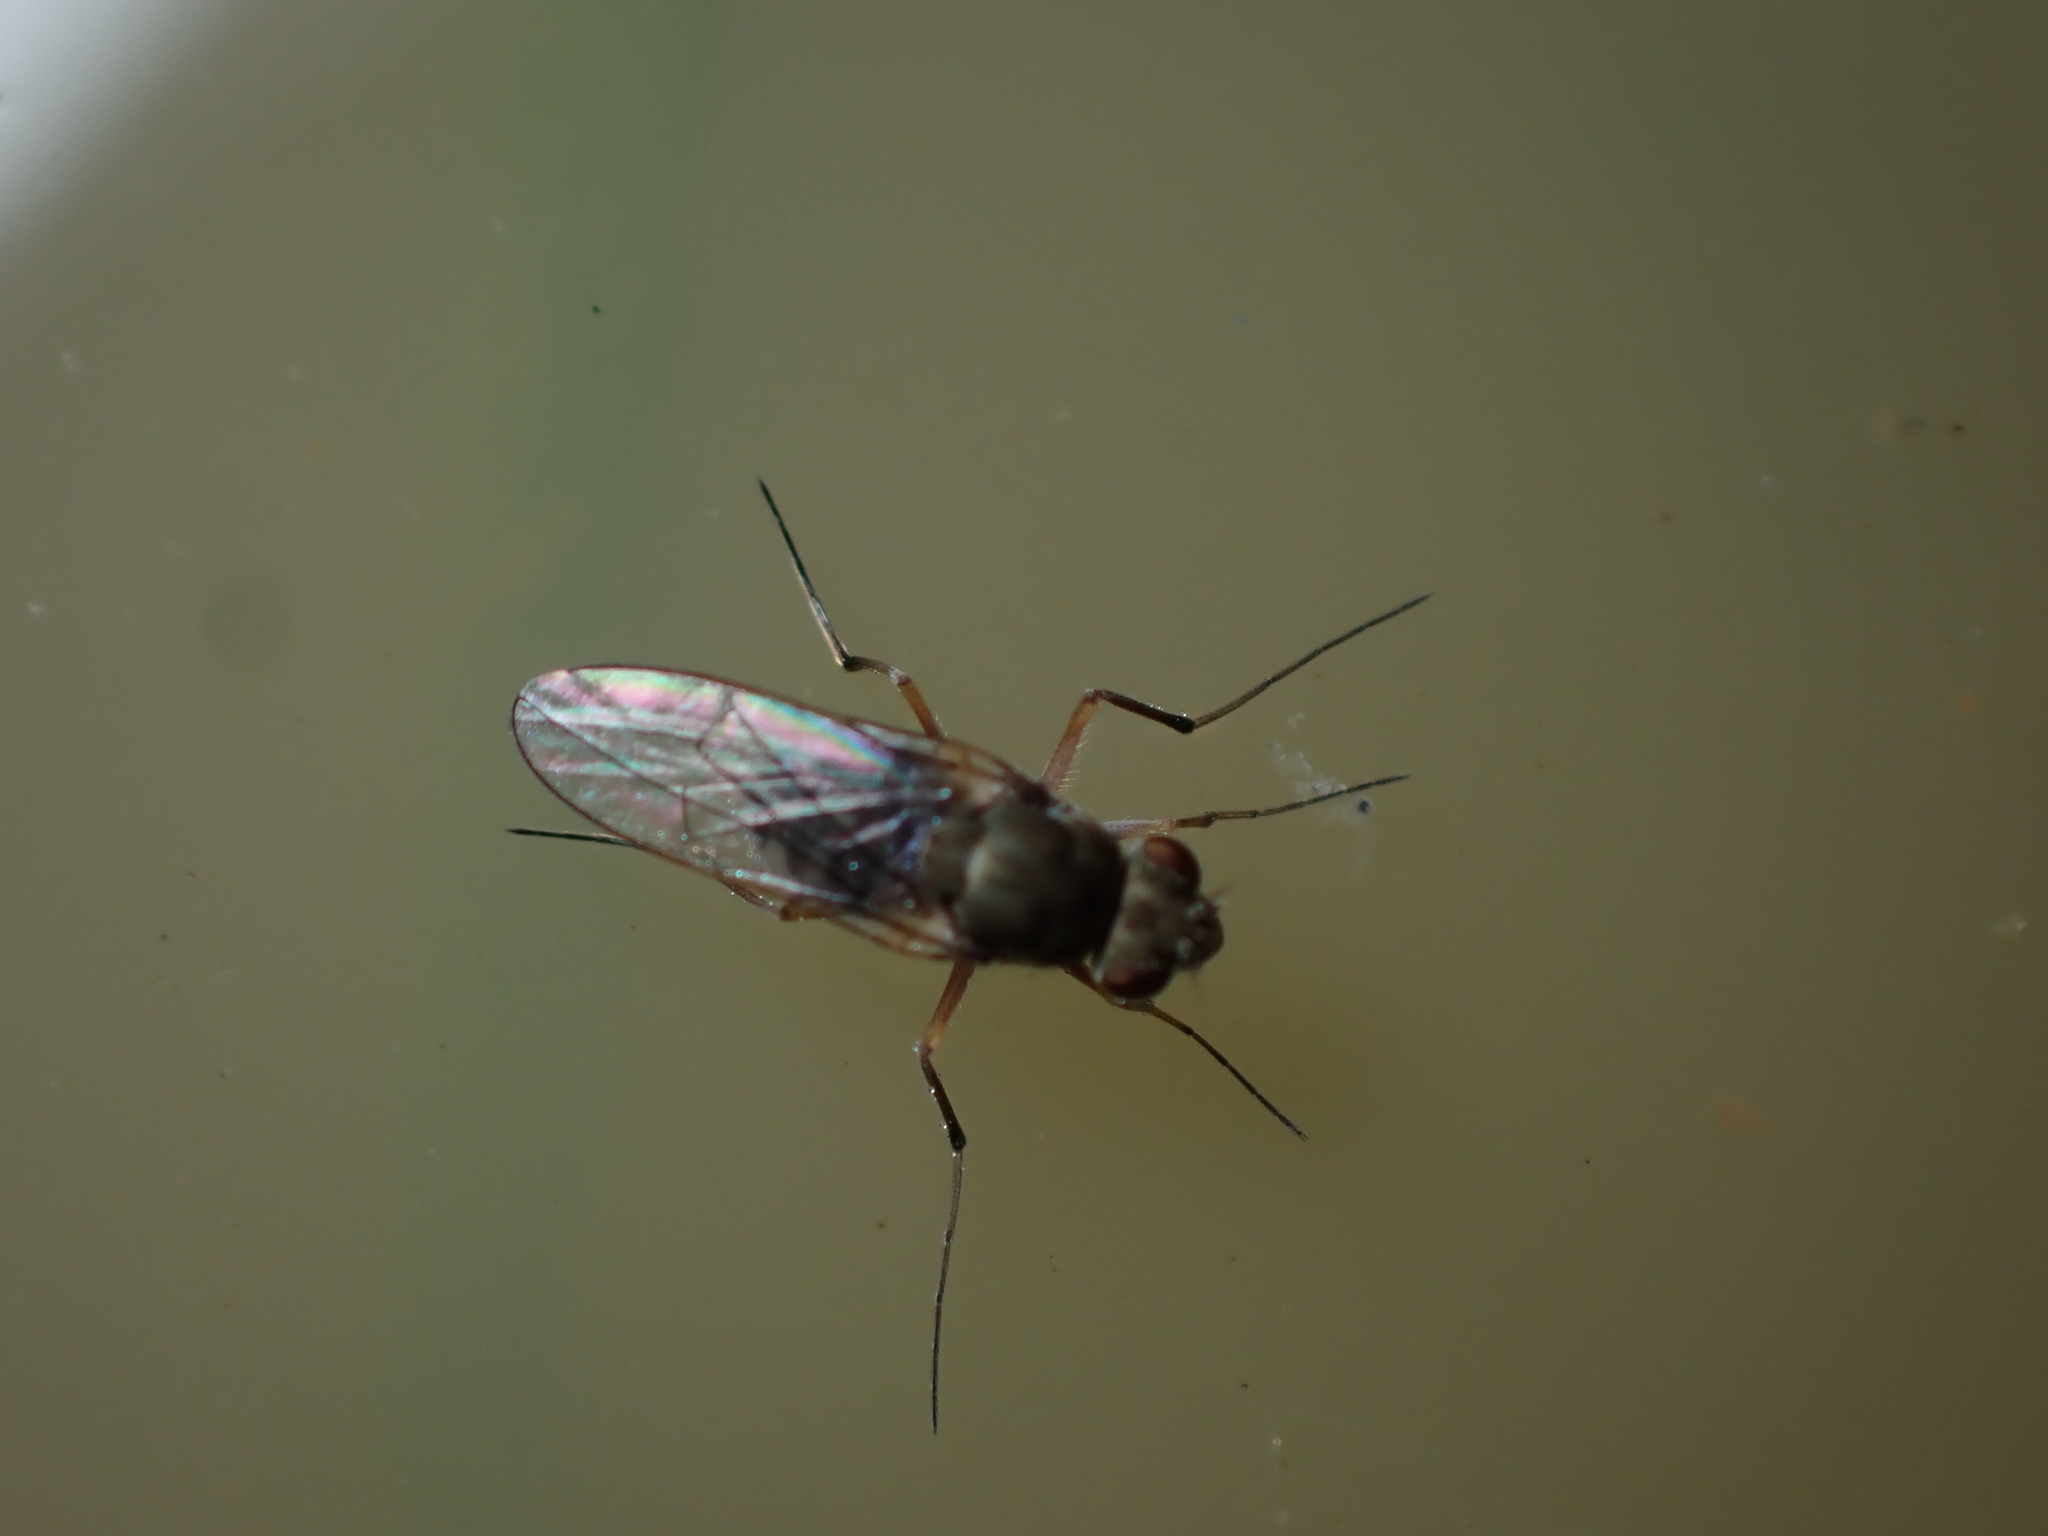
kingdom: Animalia
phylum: Arthropoda
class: Insecta
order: Diptera
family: Ephydridae
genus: Brachydeutera
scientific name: Brachydeutera sydneyensis
